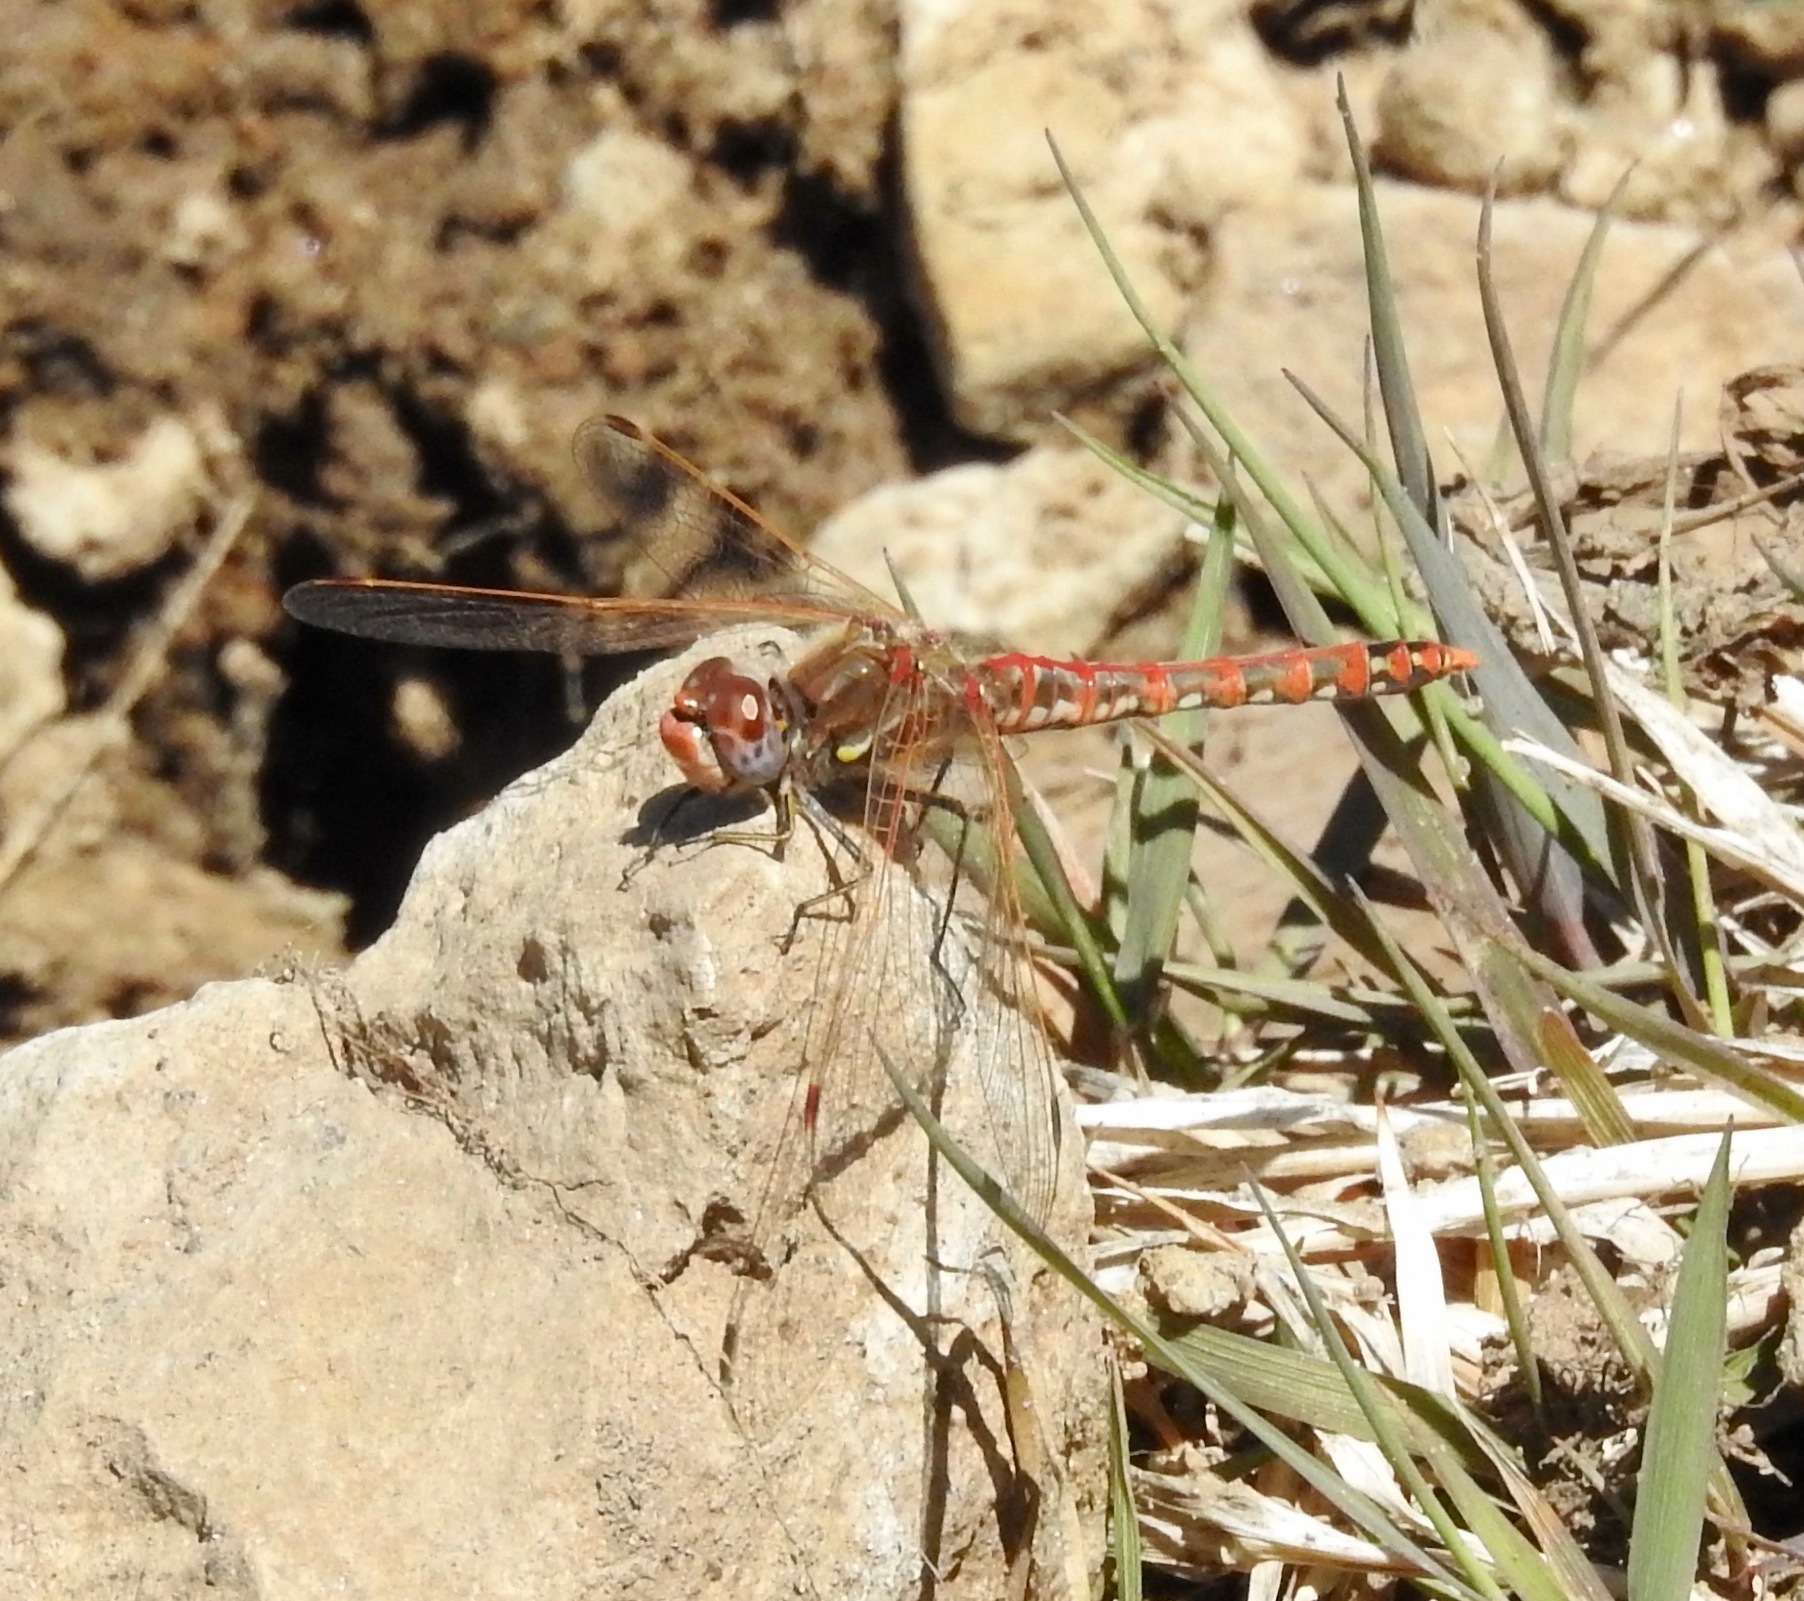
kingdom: Animalia
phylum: Arthropoda
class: Insecta
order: Odonata
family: Libellulidae
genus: Sympetrum
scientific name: Sympetrum corruptum
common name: Variegated meadowhawk
